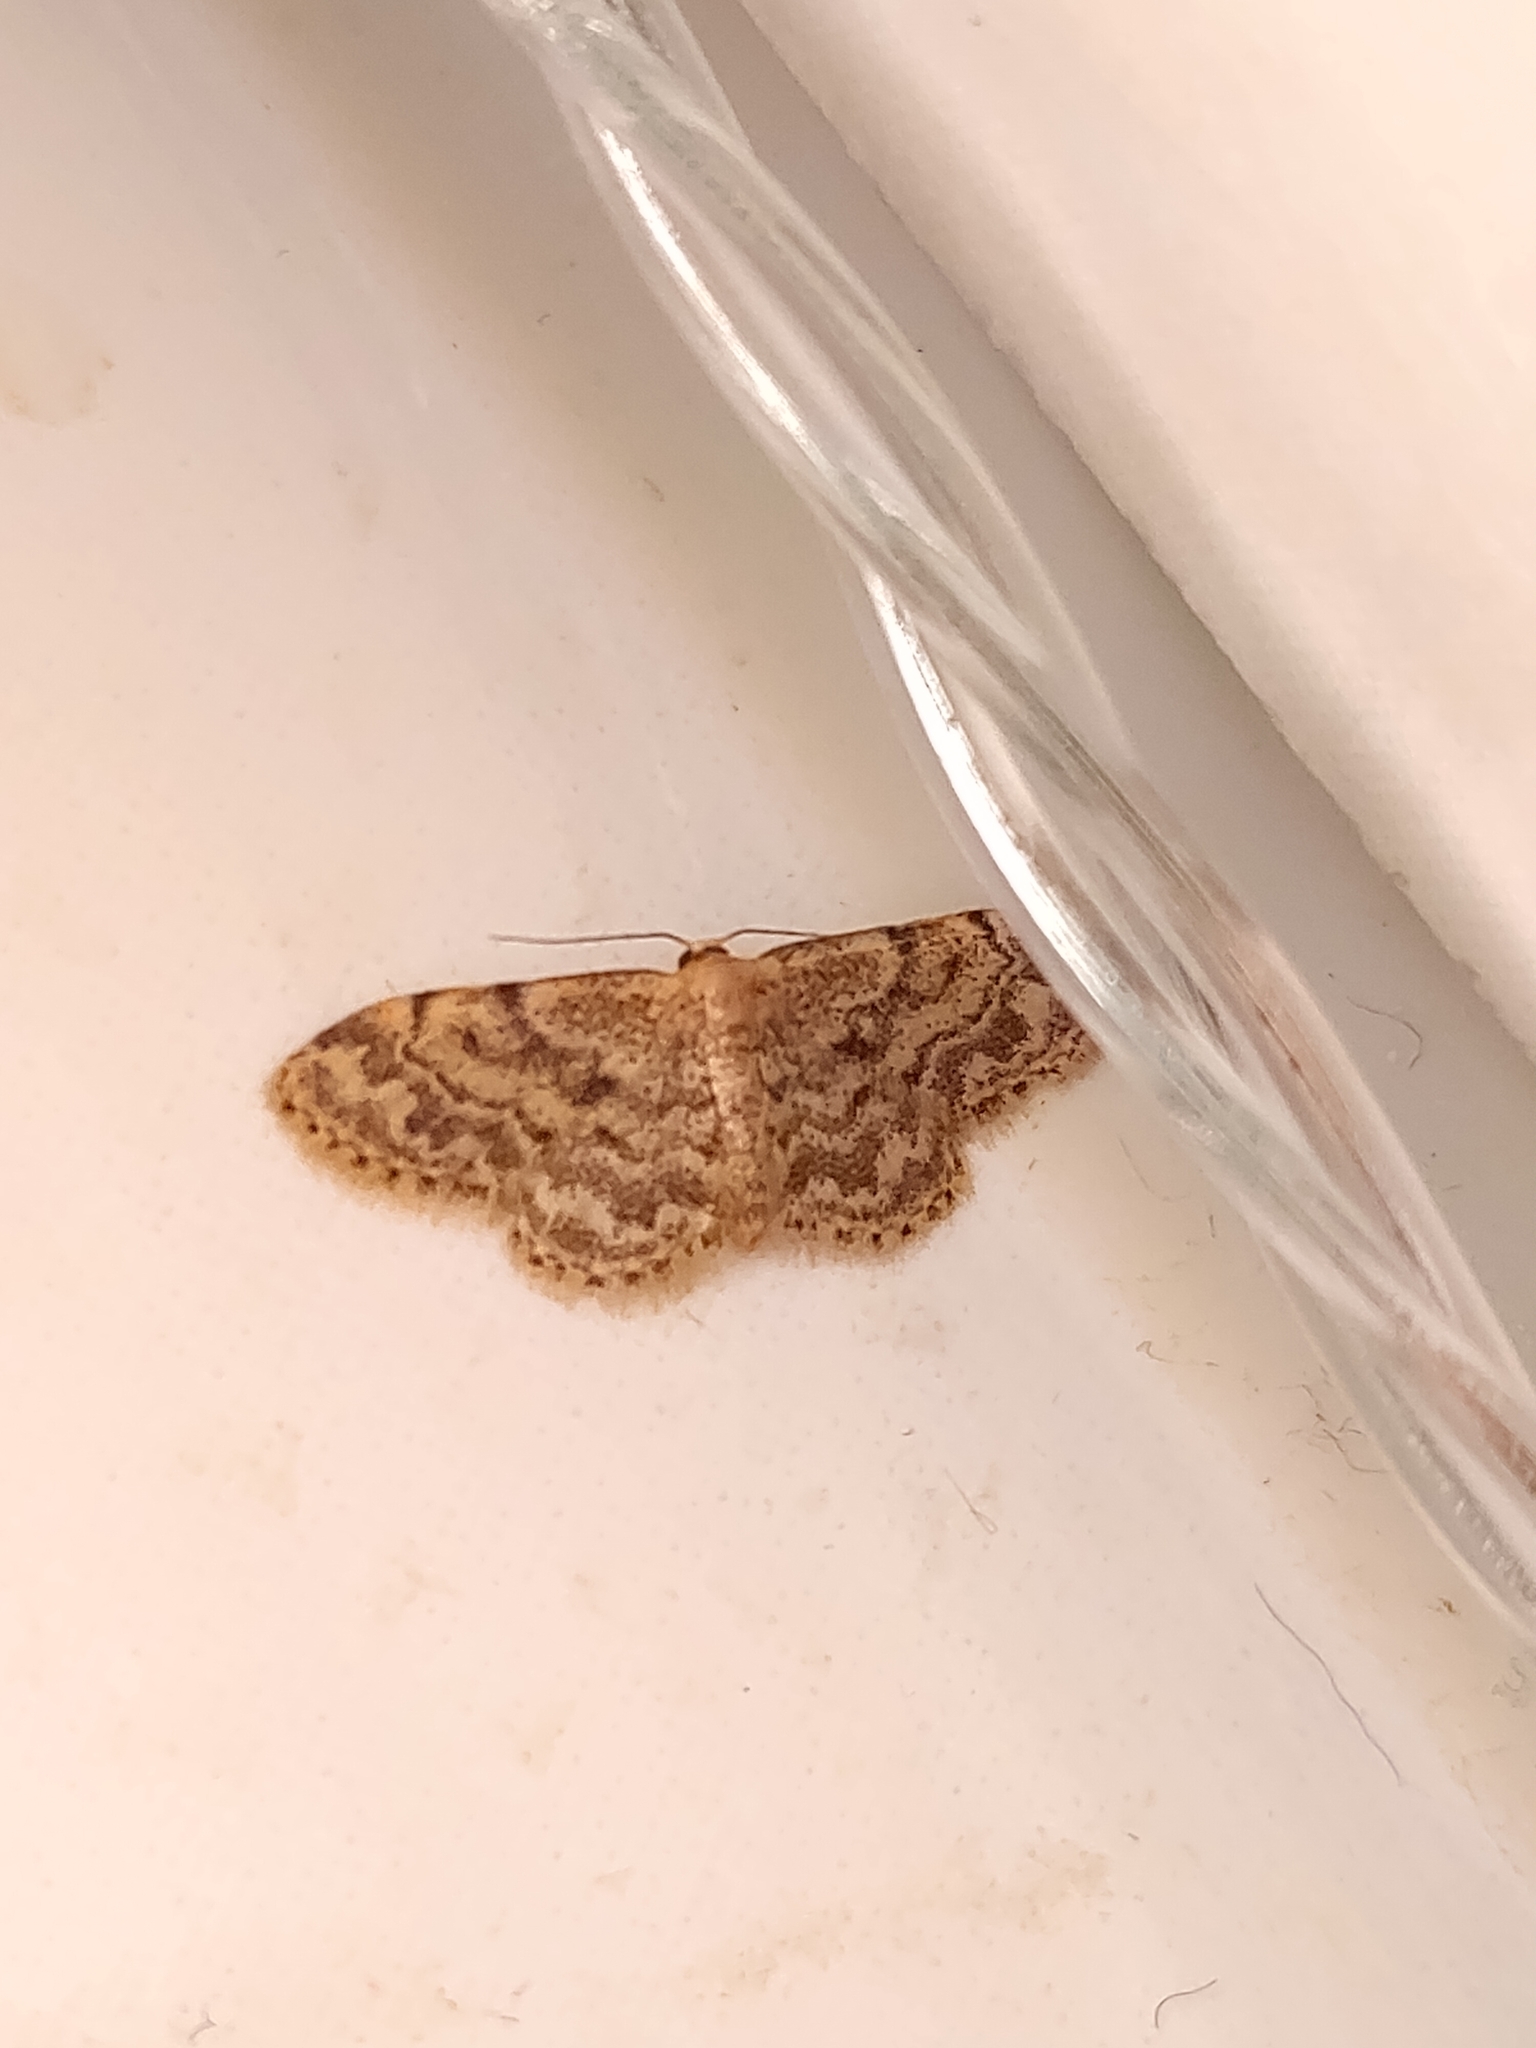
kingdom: Animalia
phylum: Arthropoda
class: Insecta
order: Lepidoptera
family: Geometridae
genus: Idaea
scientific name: Idaea inquinata
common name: Rusty wave
